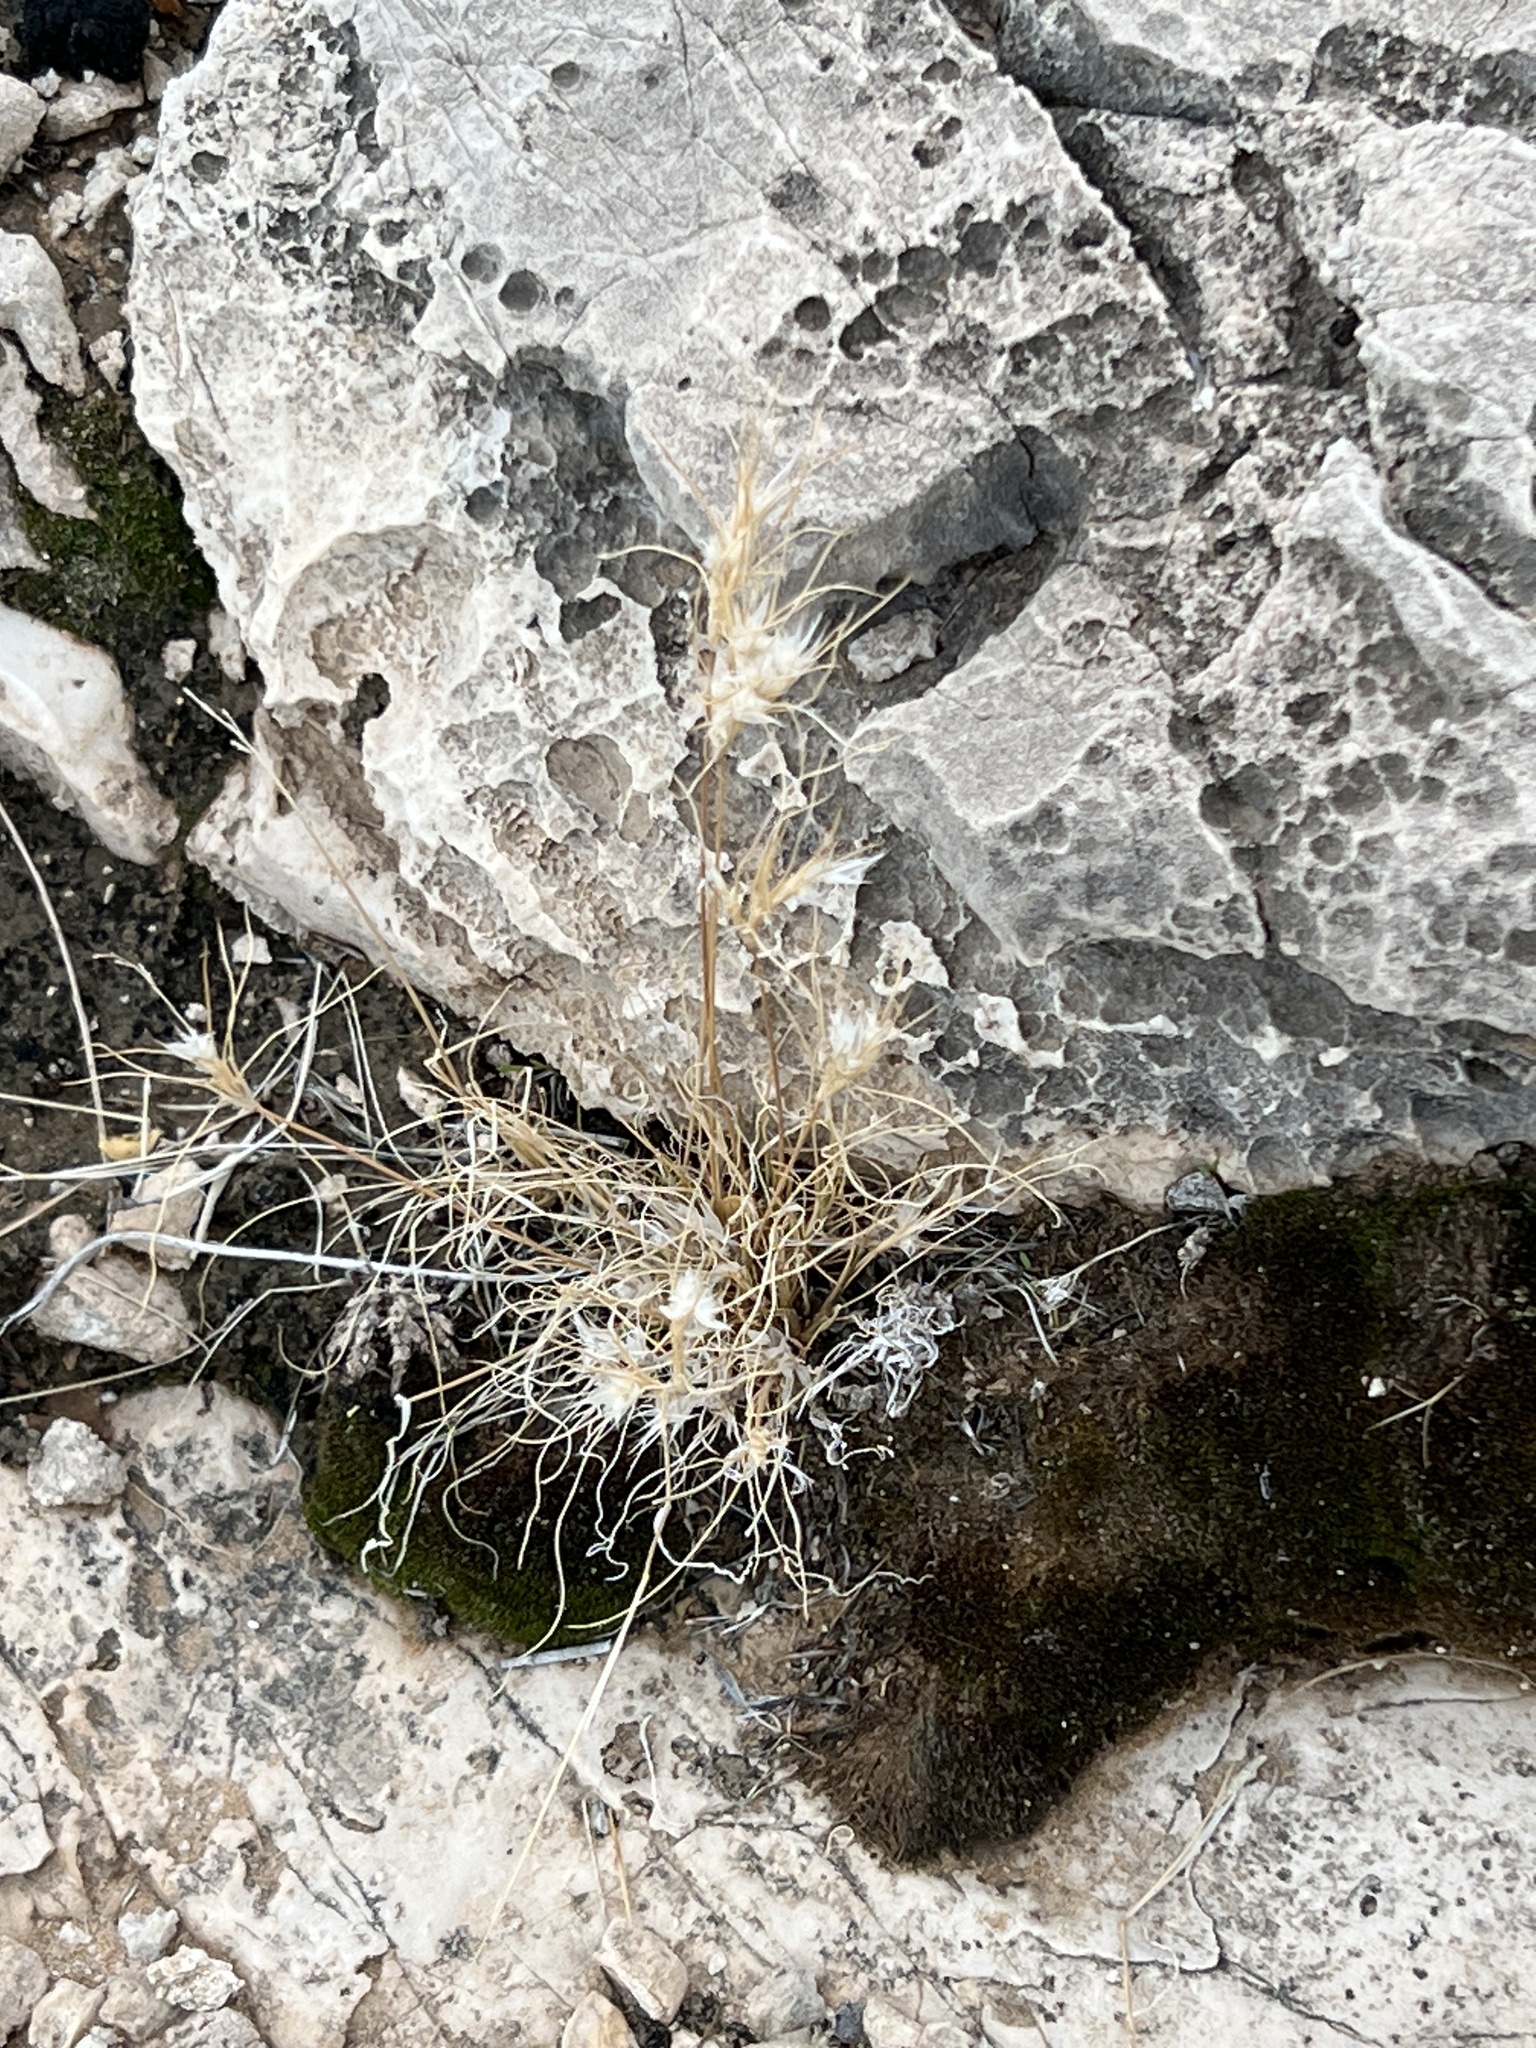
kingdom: Plantae
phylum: Tracheophyta
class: Liliopsida
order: Poales
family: Poaceae
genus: Dasyochloa
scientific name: Dasyochloa pulchella
